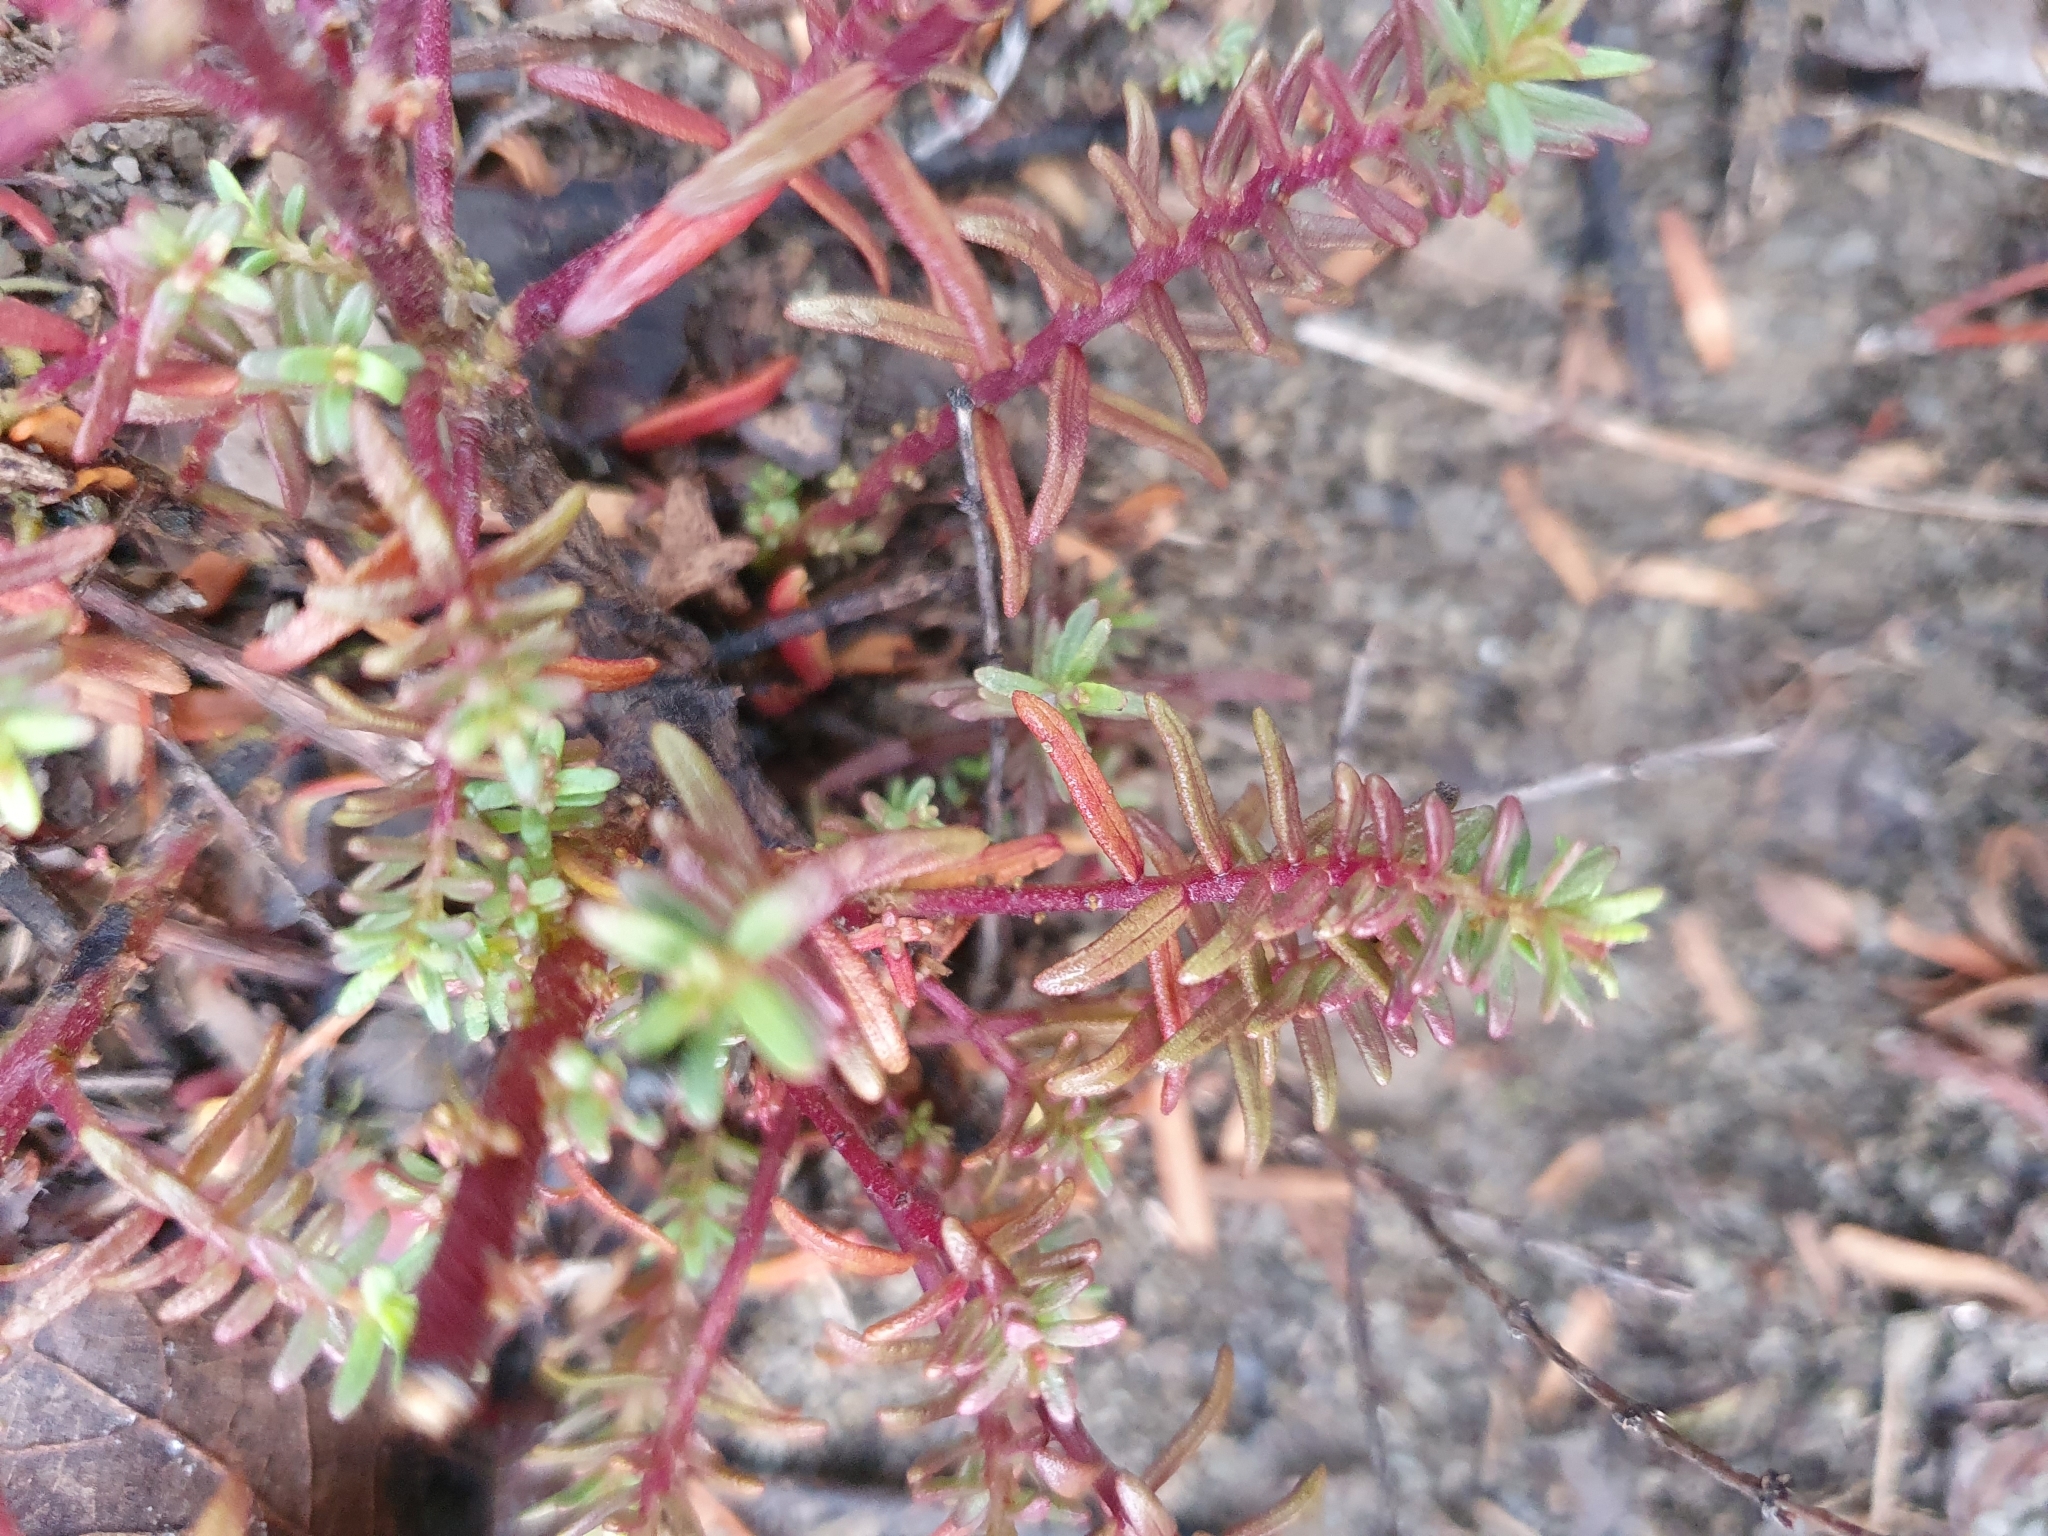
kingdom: Plantae
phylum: Tracheophyta
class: Magnoliopsida
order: Lamiales
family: Orobanchaceae
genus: Odontites
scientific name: Odontites bolligeri
